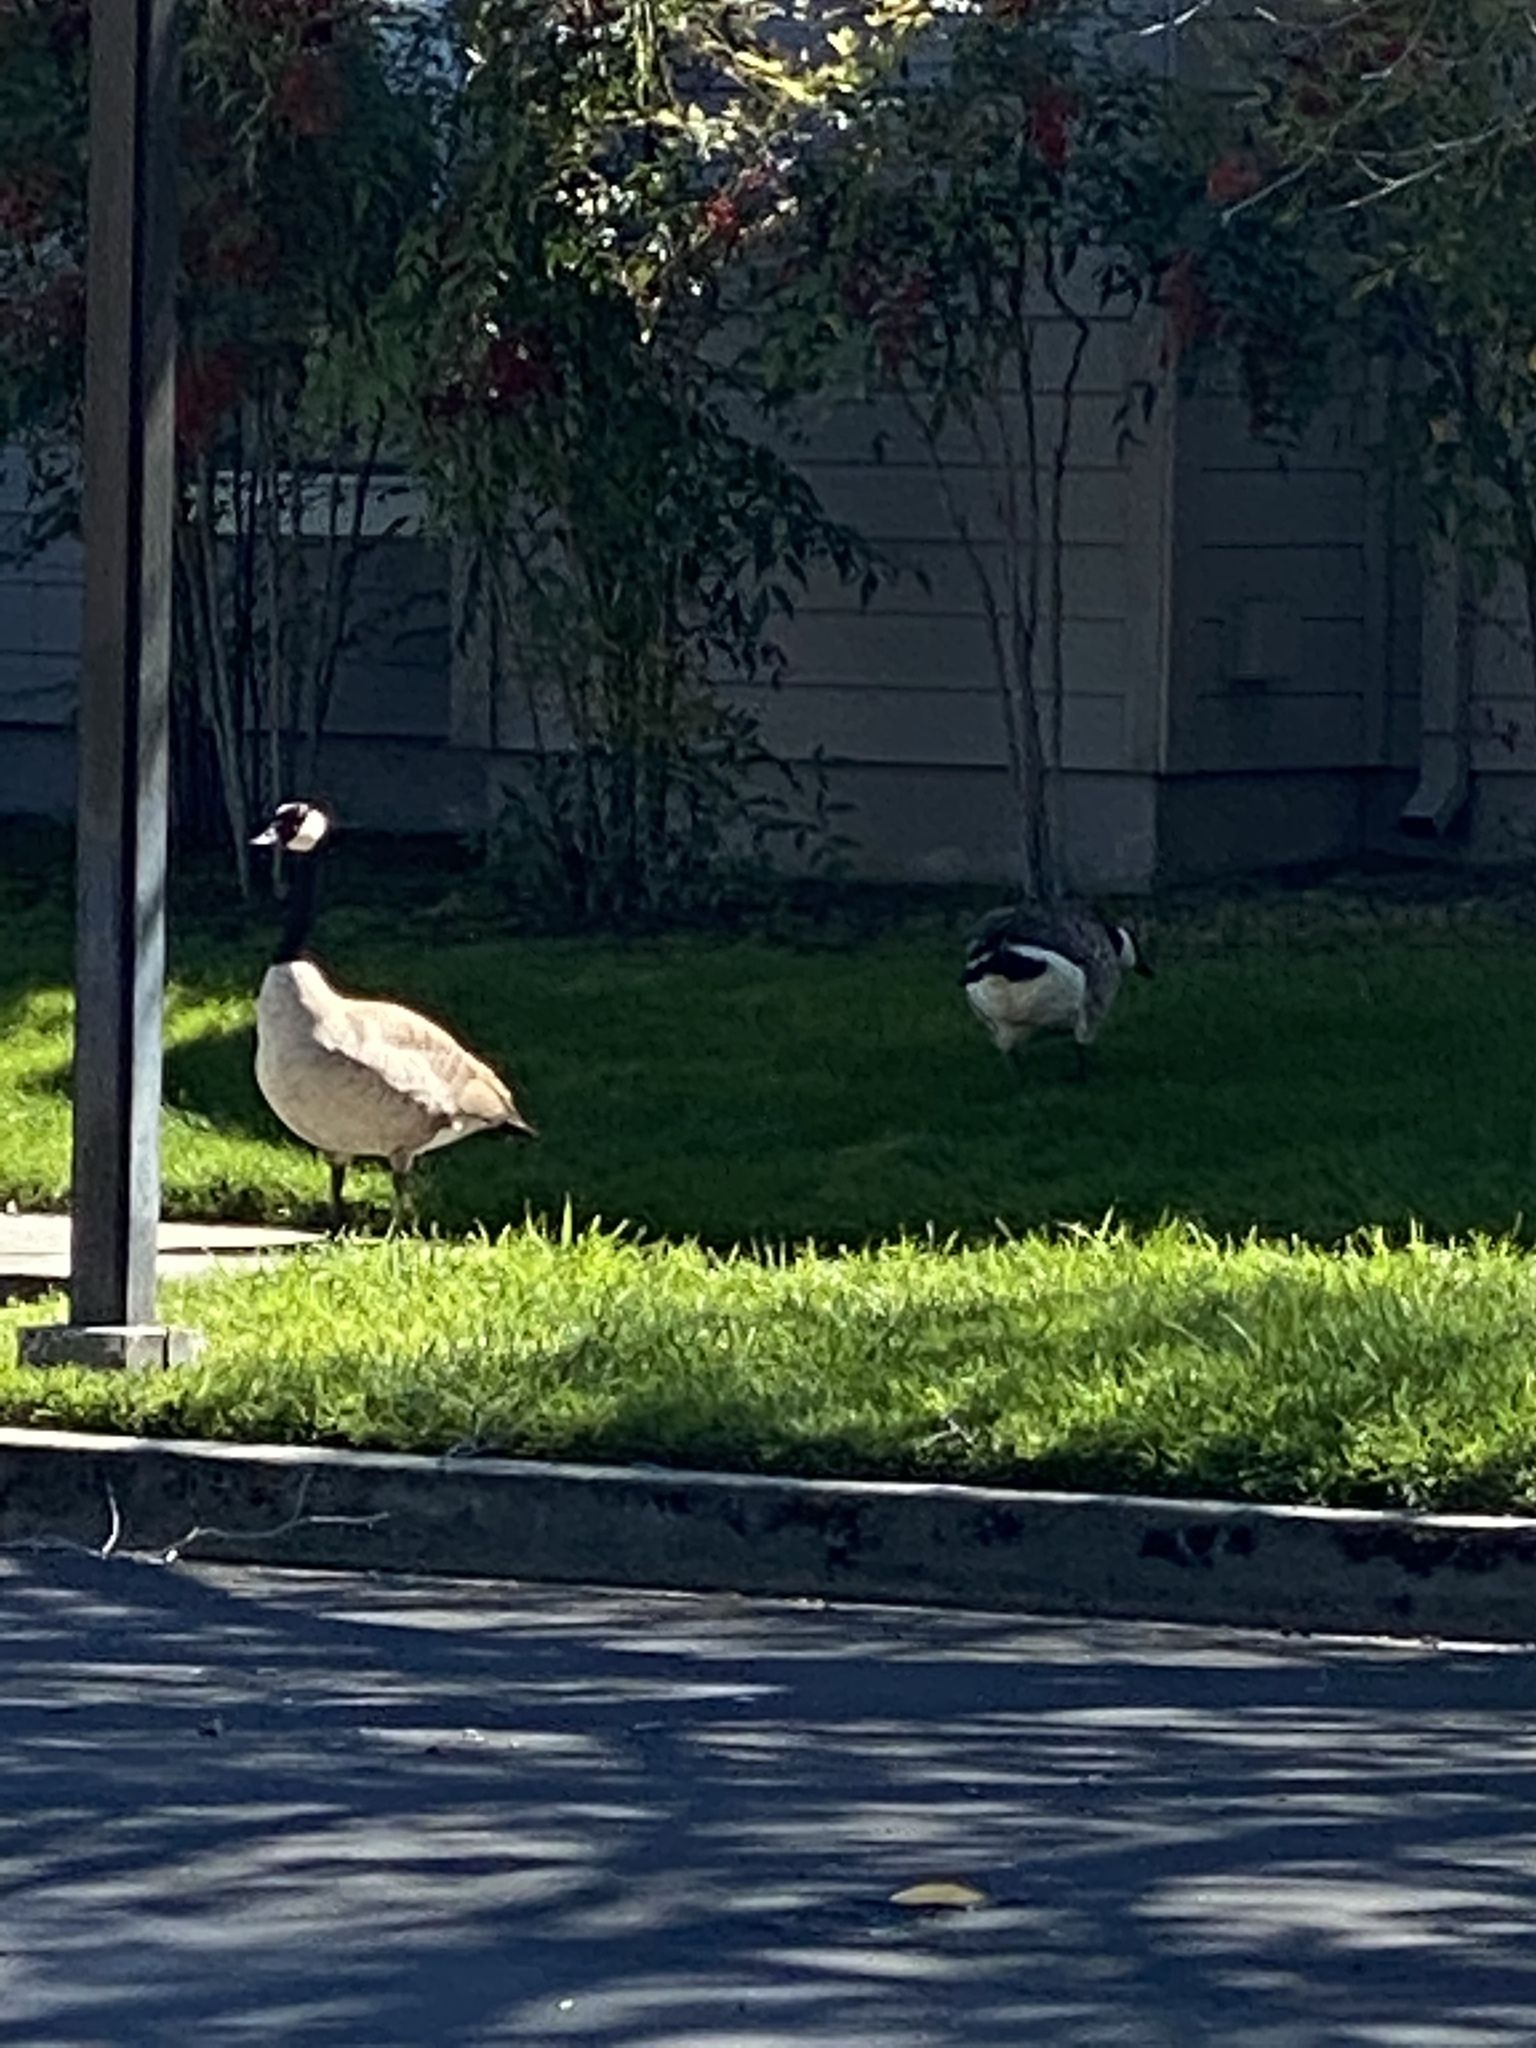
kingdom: Animalia
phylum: Chordata
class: Aves
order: Anseriformes
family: Anatidae
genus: Branta
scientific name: Branta canadensis
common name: Canada goose
